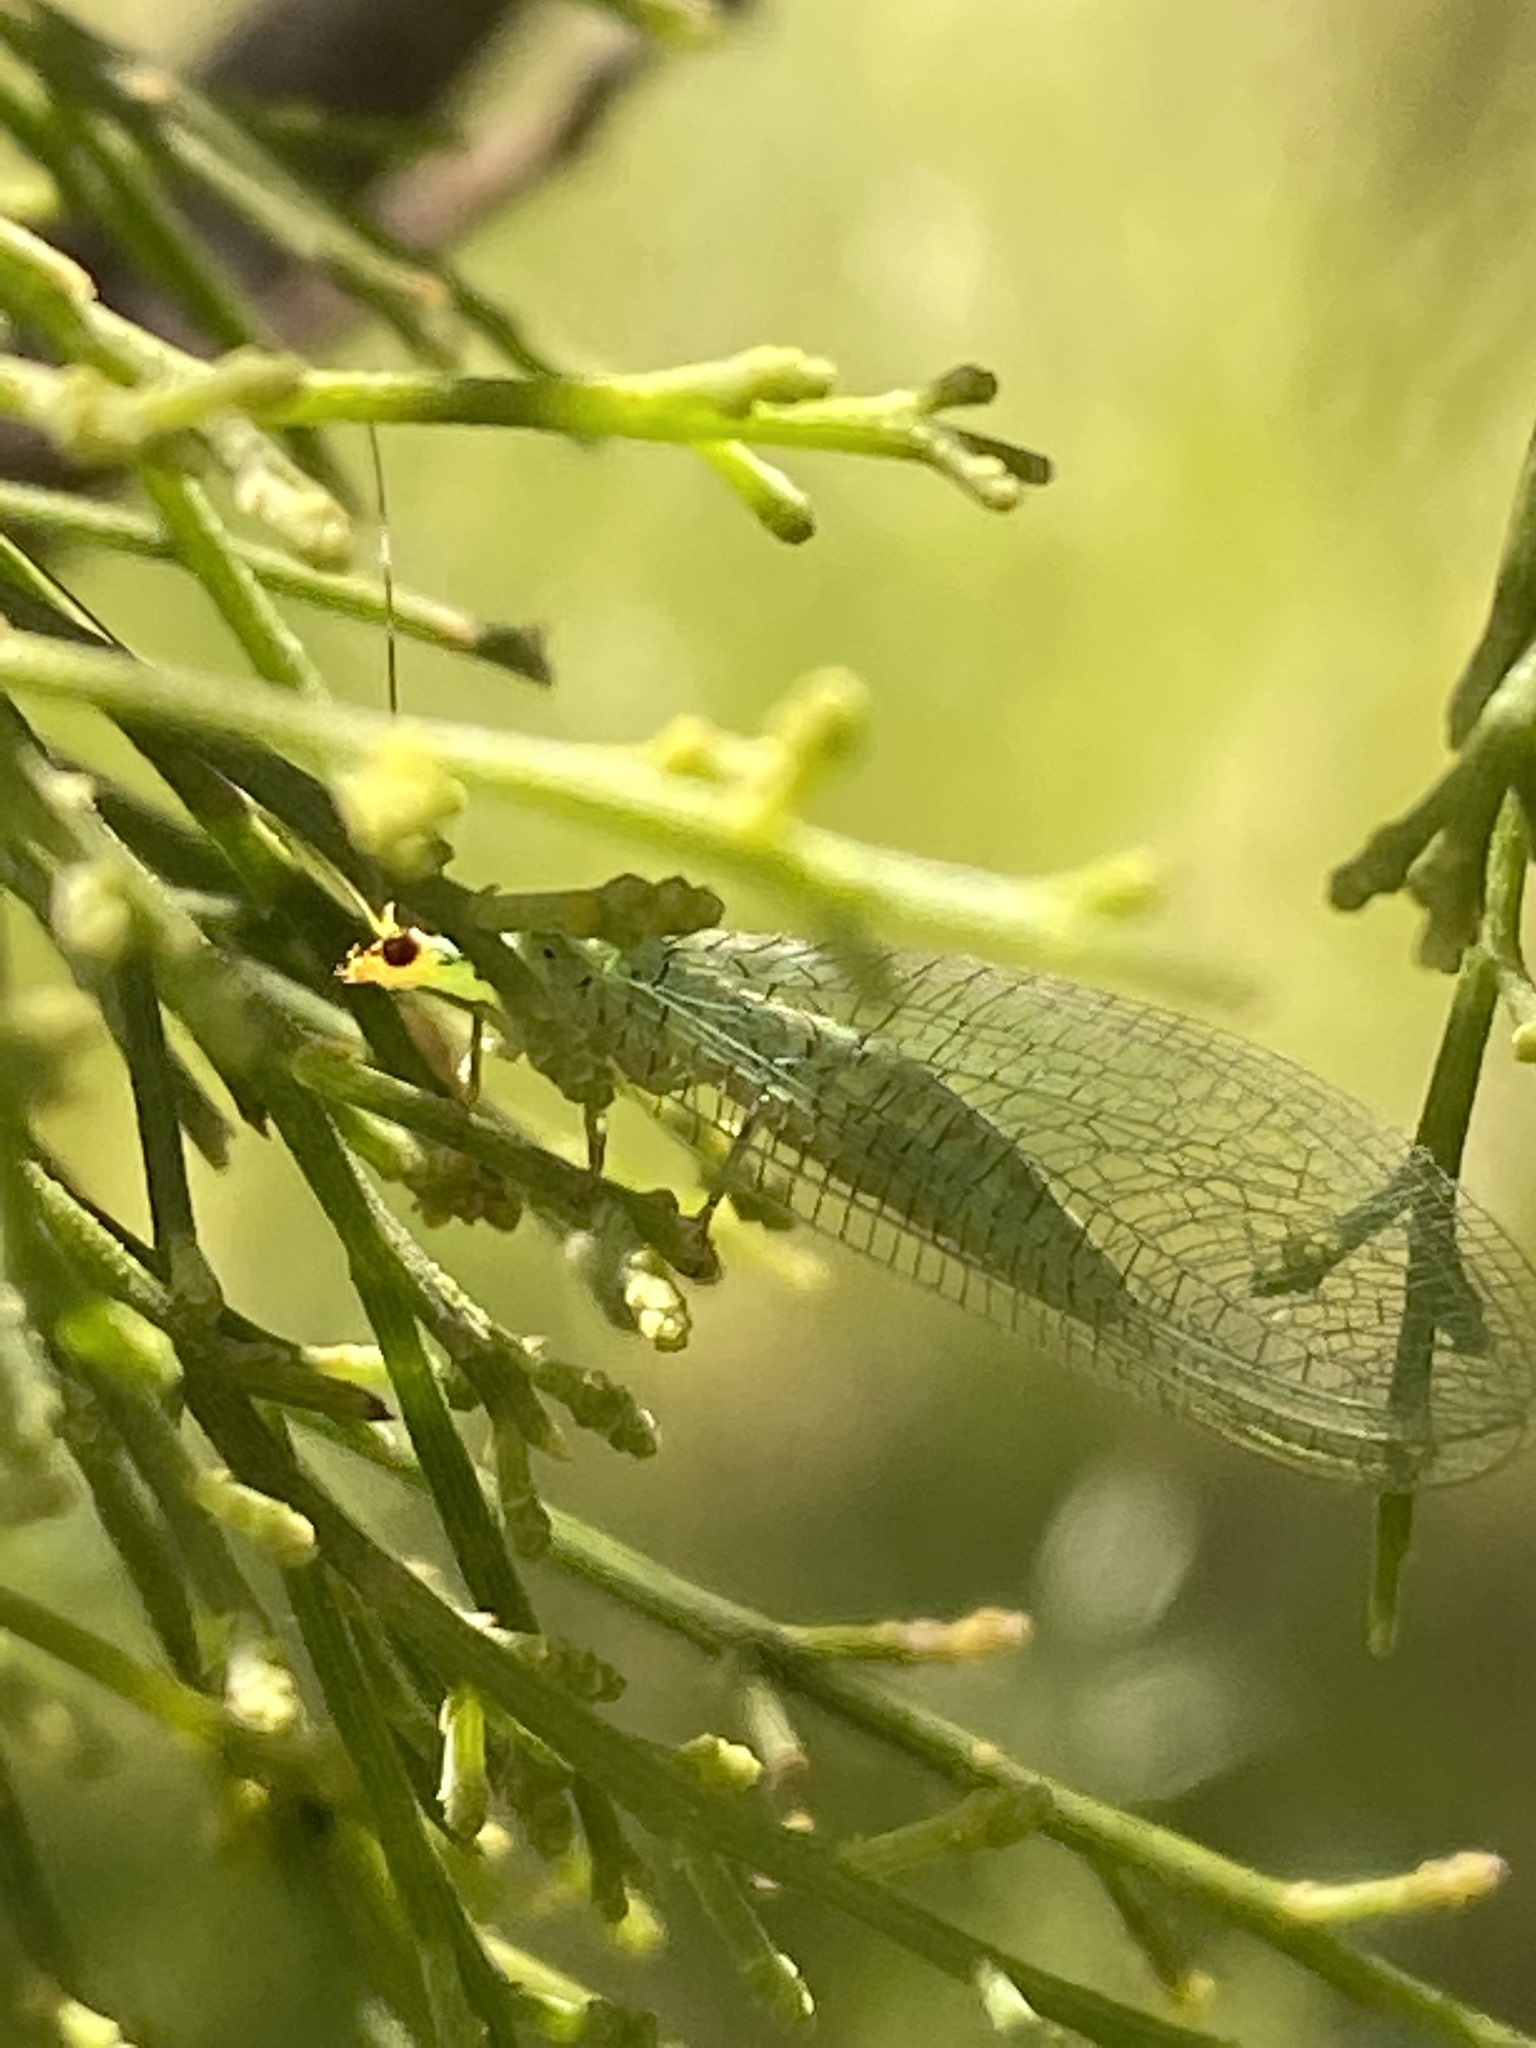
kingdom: Animalia
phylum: Arthropoda
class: Insecta
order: Neuroptera
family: Chrysopidae
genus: Pseudomallada
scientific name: Pseudomallada edwardsi
